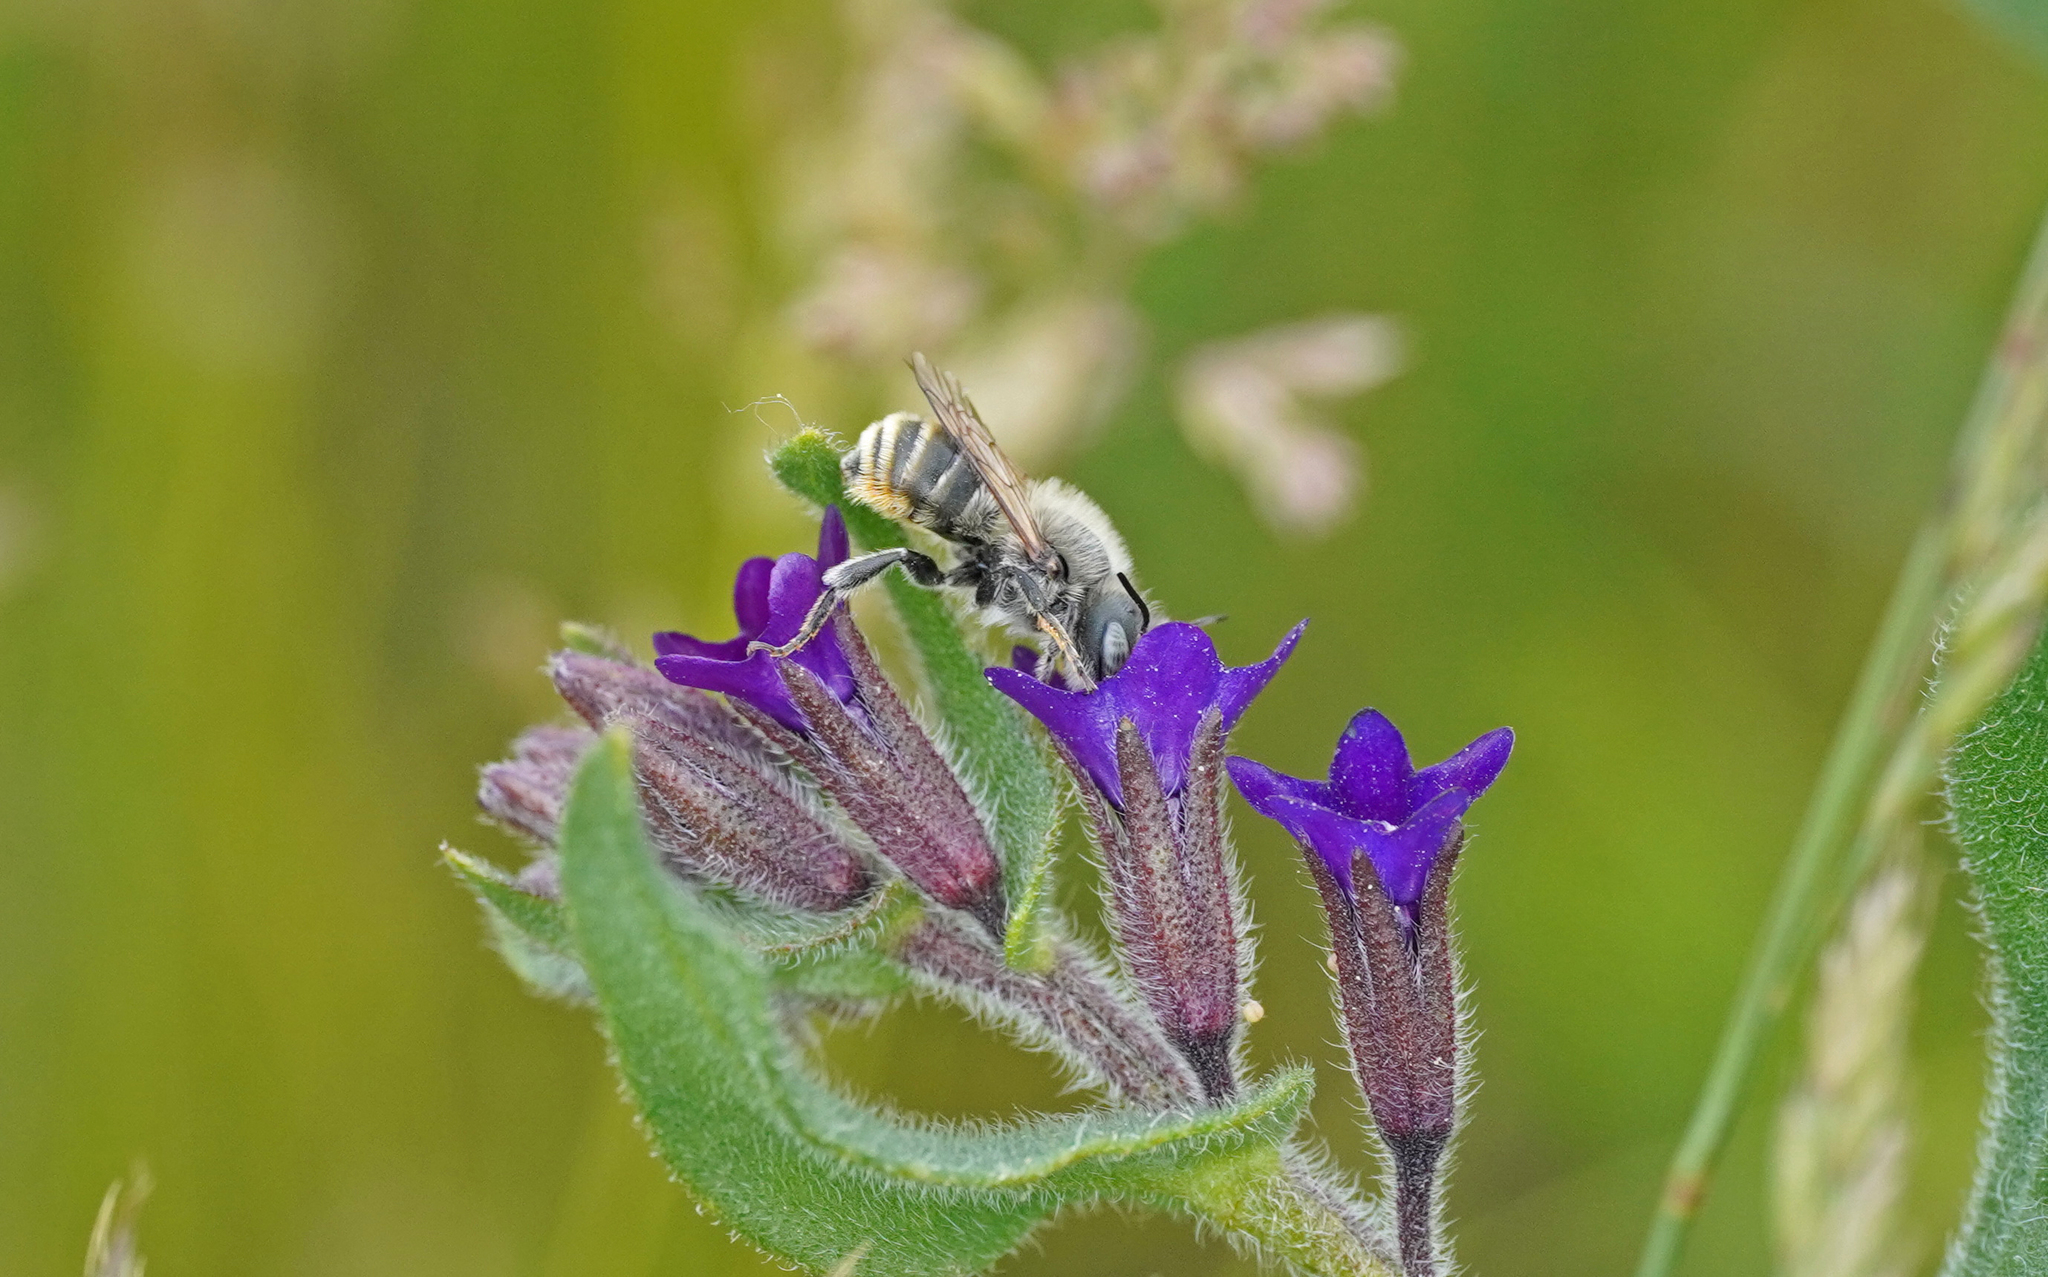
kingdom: Animalia
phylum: Arthropoda
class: Insecta
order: Hymenoptera
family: Megachilidae
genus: Osmia
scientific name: Osmia aurulenta
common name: Gold-fringed mason bee
